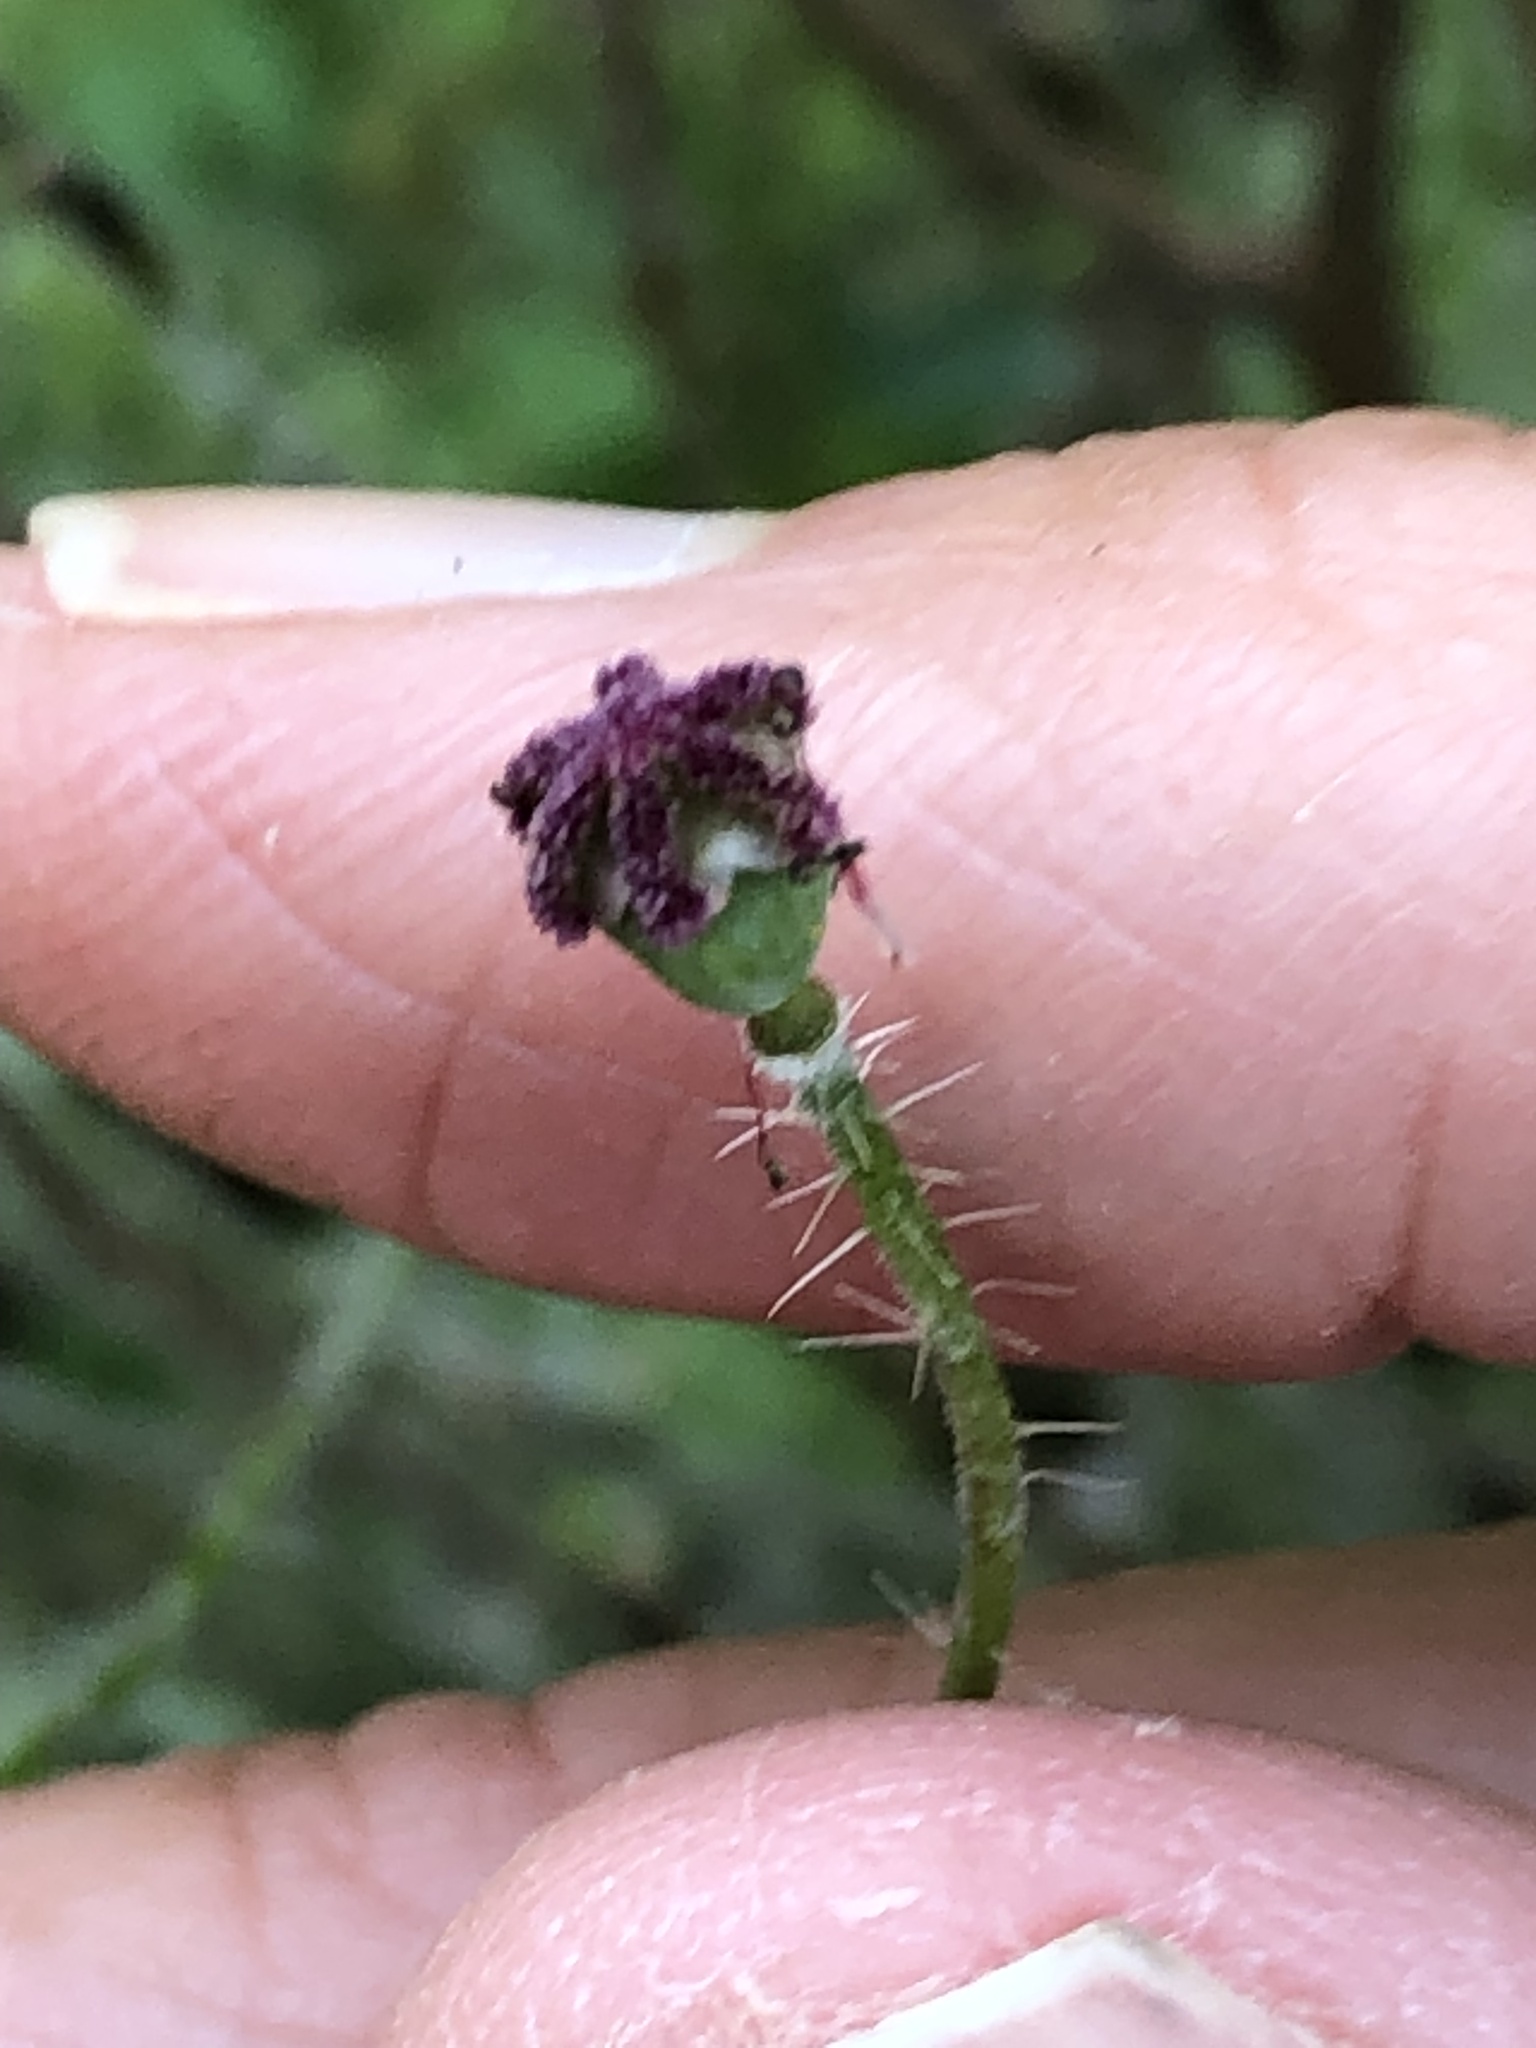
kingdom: Plantae
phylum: Tracheophyta
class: Magnoliopsida
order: Ranunculales
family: Papaveraceae
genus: Papaver
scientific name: Papaver rhoeas
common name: Corn poppy
